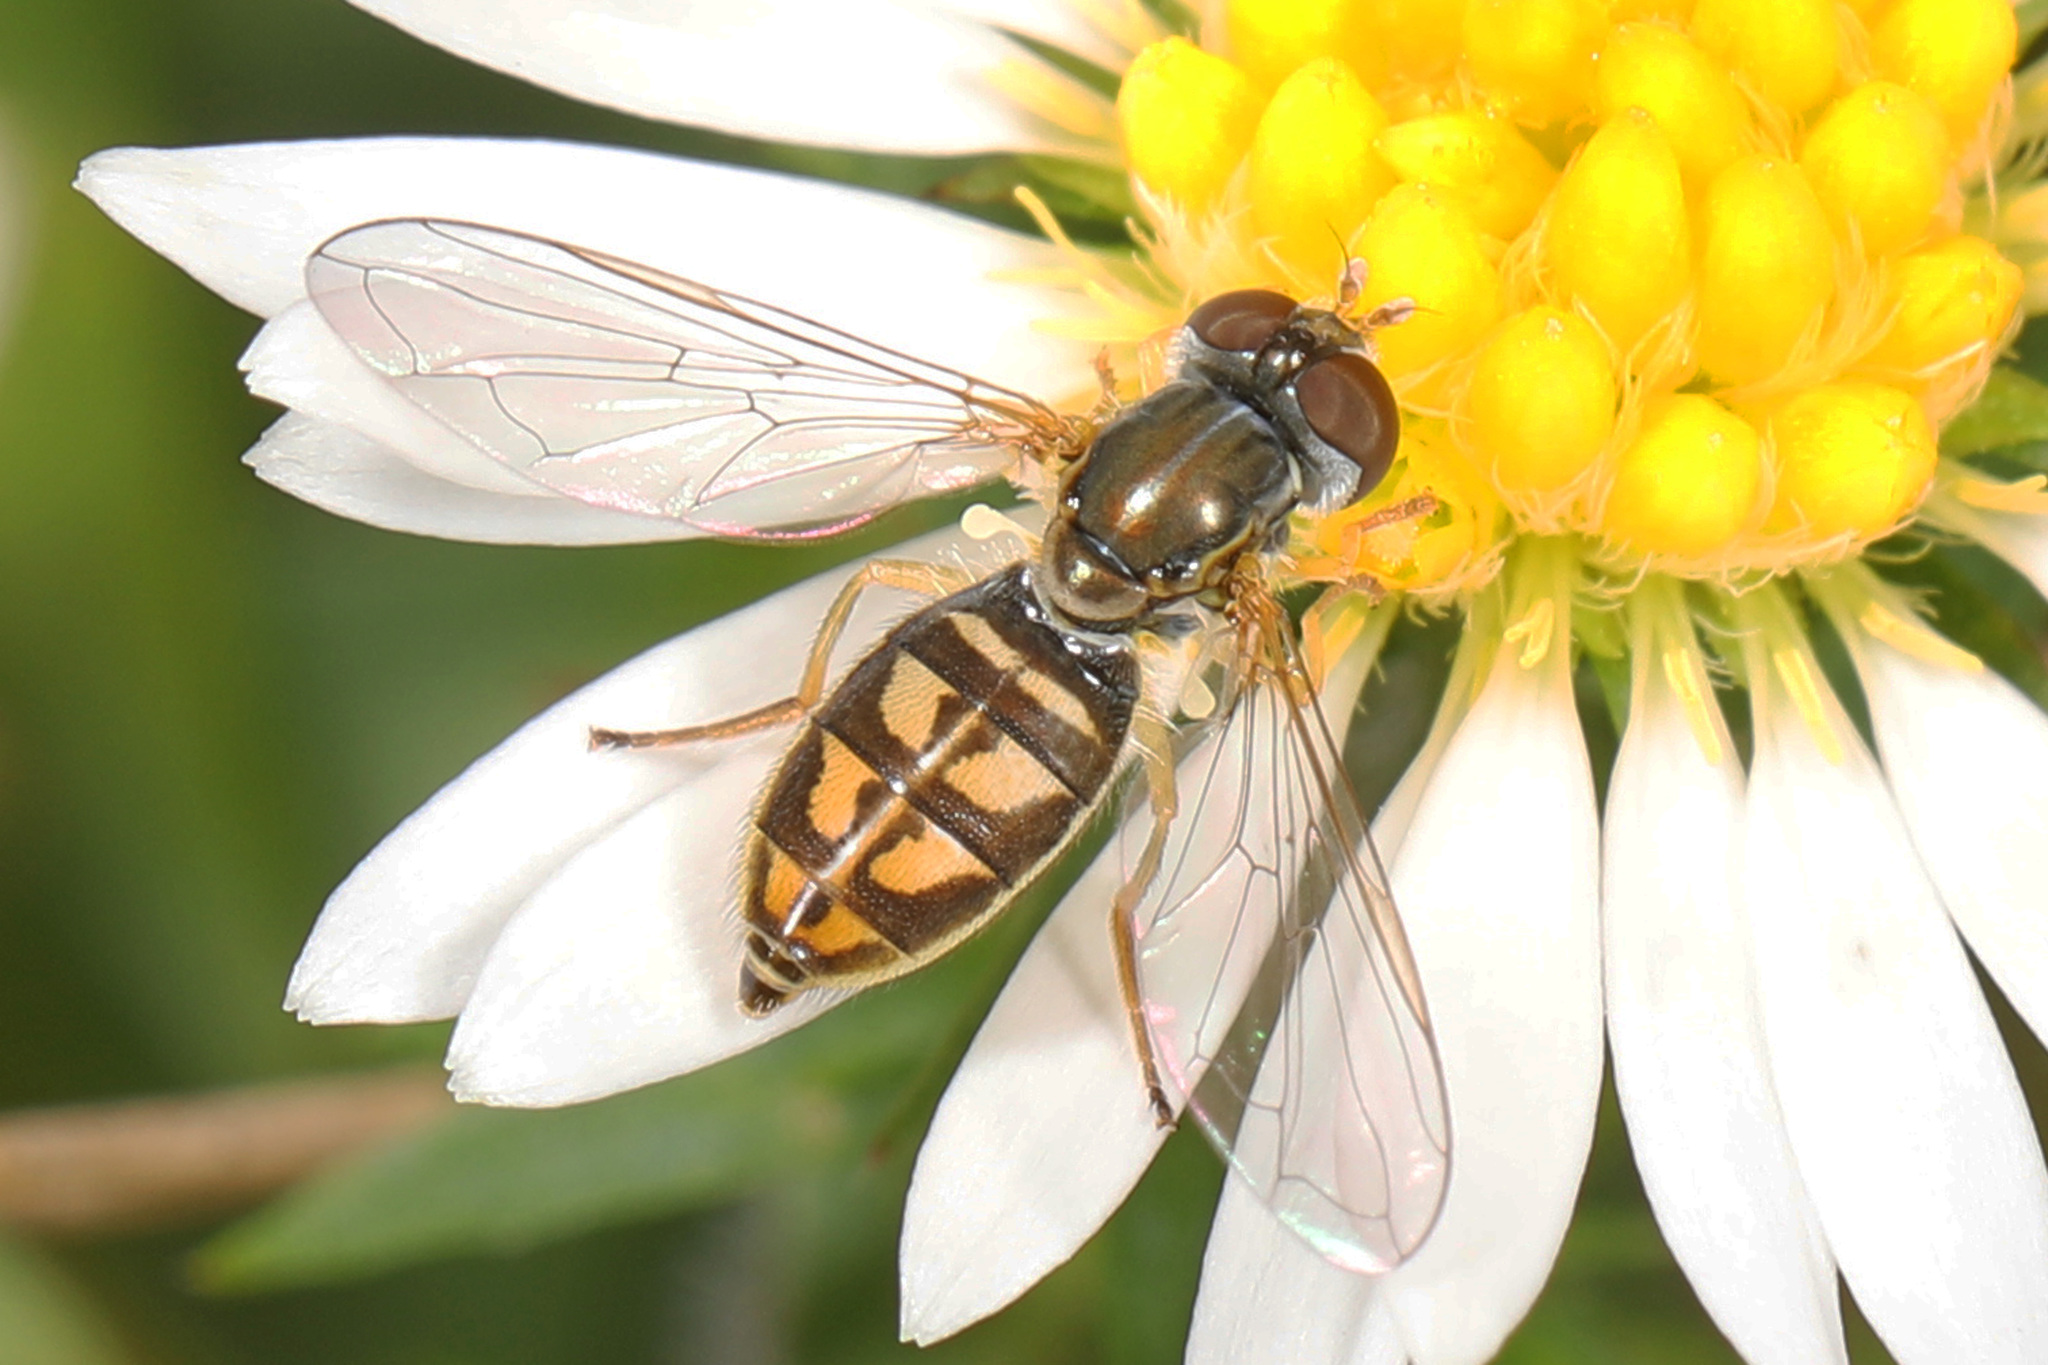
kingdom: Animalia
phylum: Arthropoda
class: Insecta
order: Diptera
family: Syrphidae
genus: Toxomerus
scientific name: Toxomerus marginatus
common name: Syrphid fly
